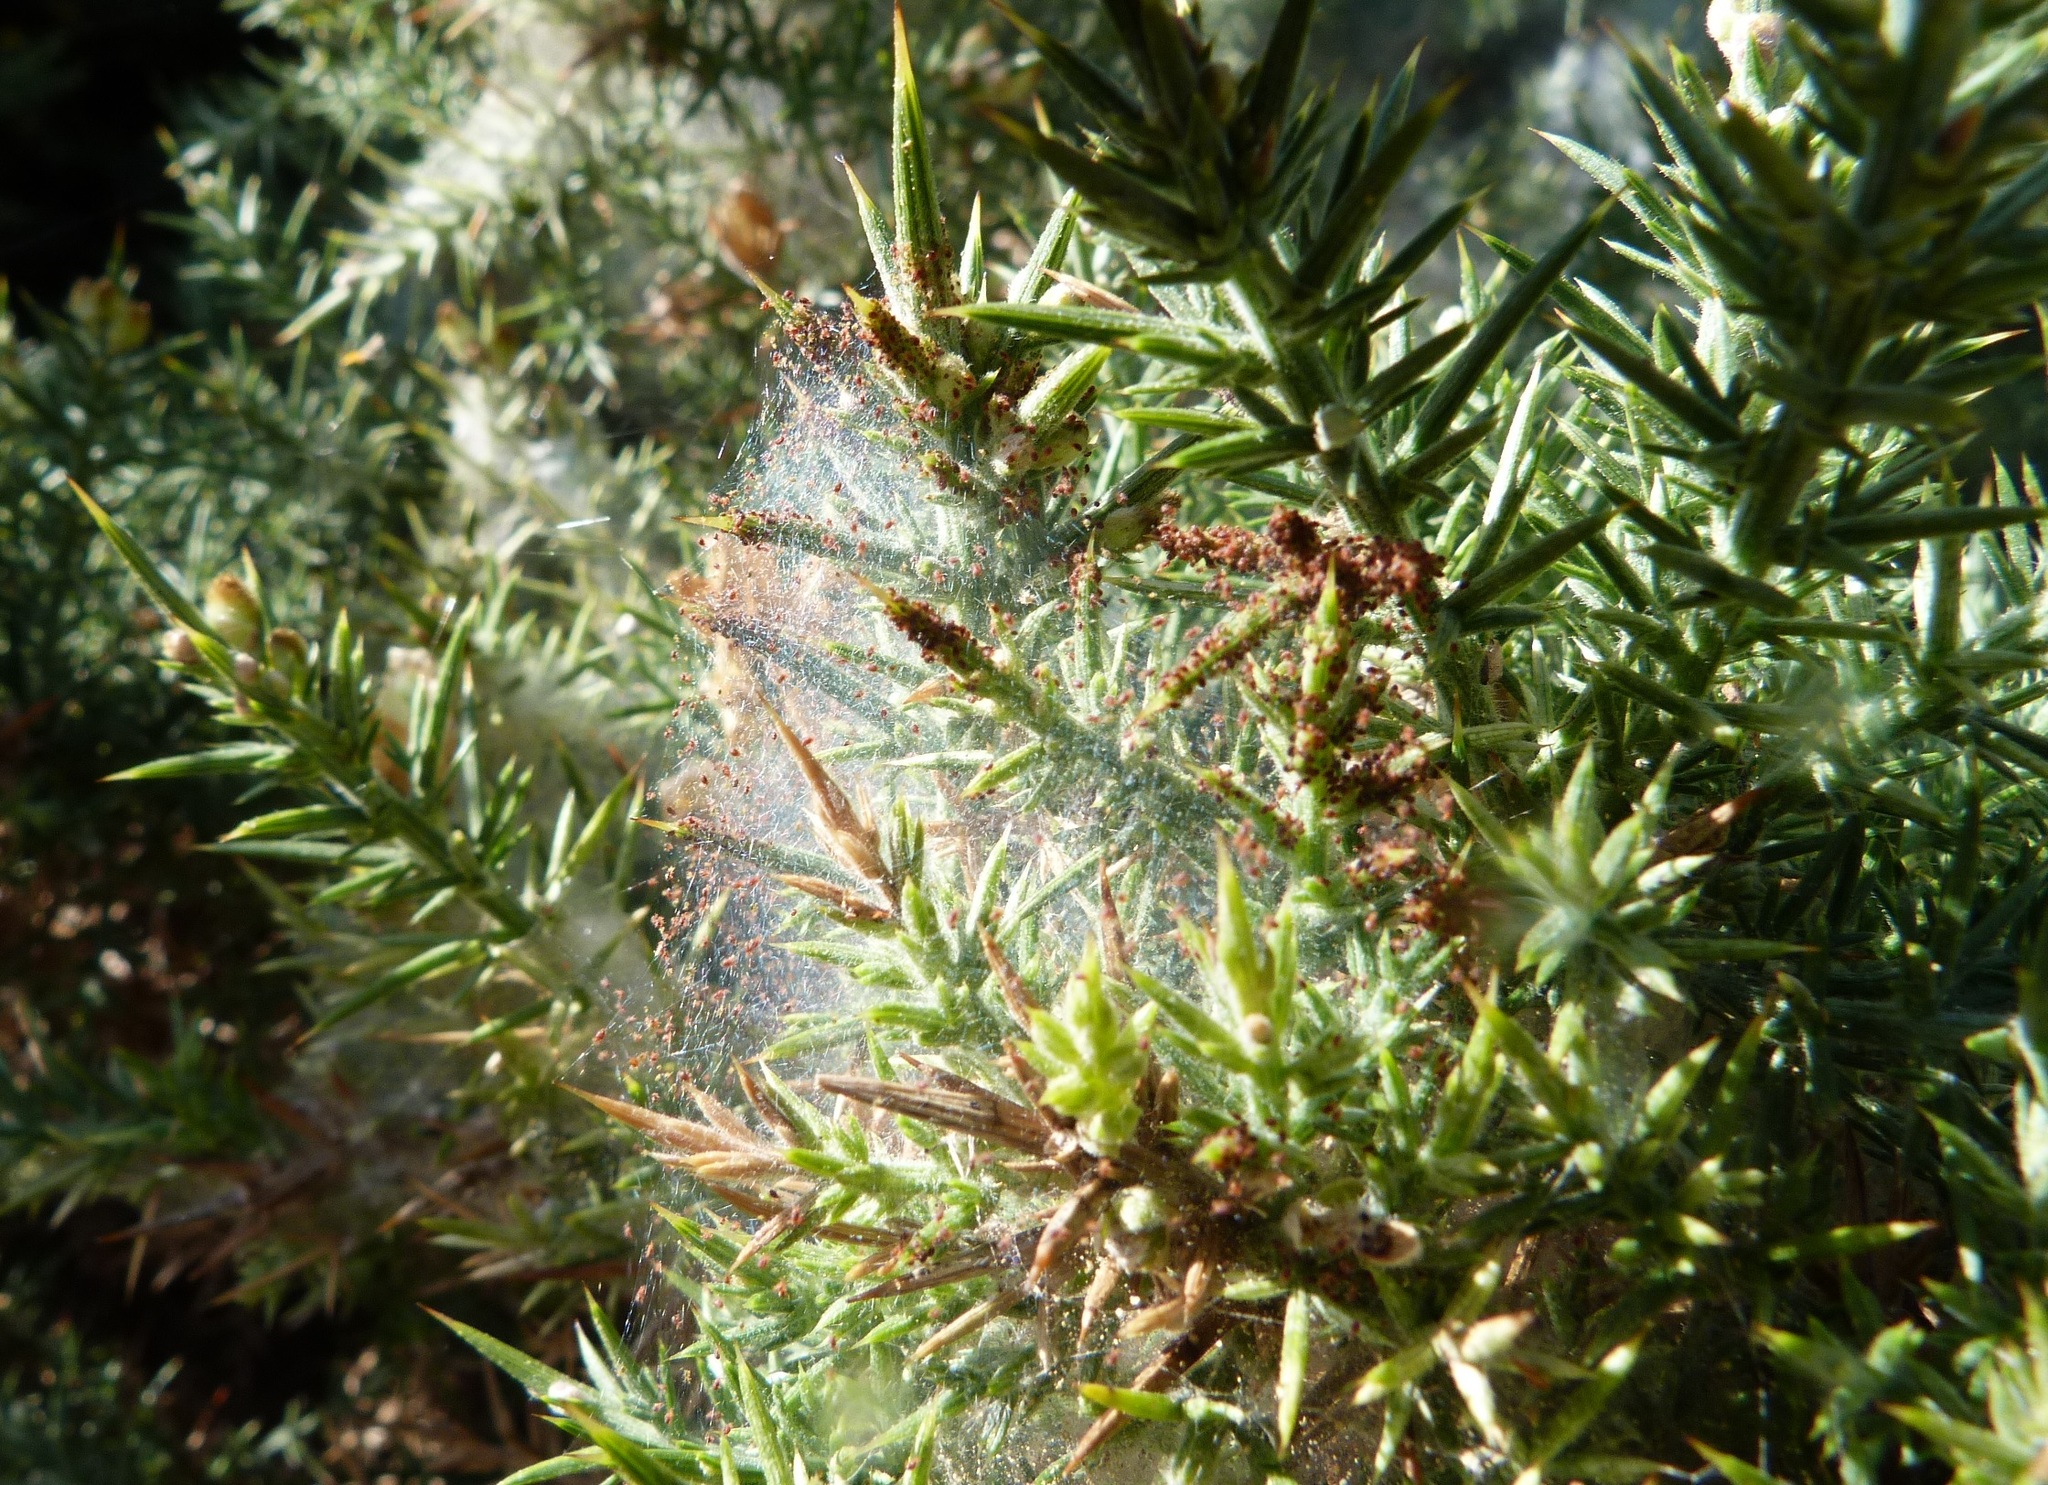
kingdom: Animalia
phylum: Arthropoda
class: Arachnida
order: Trombidiformes
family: Tetranychidae
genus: Tetranychus
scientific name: Tetranychus lintearius
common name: Gorse spider mite
